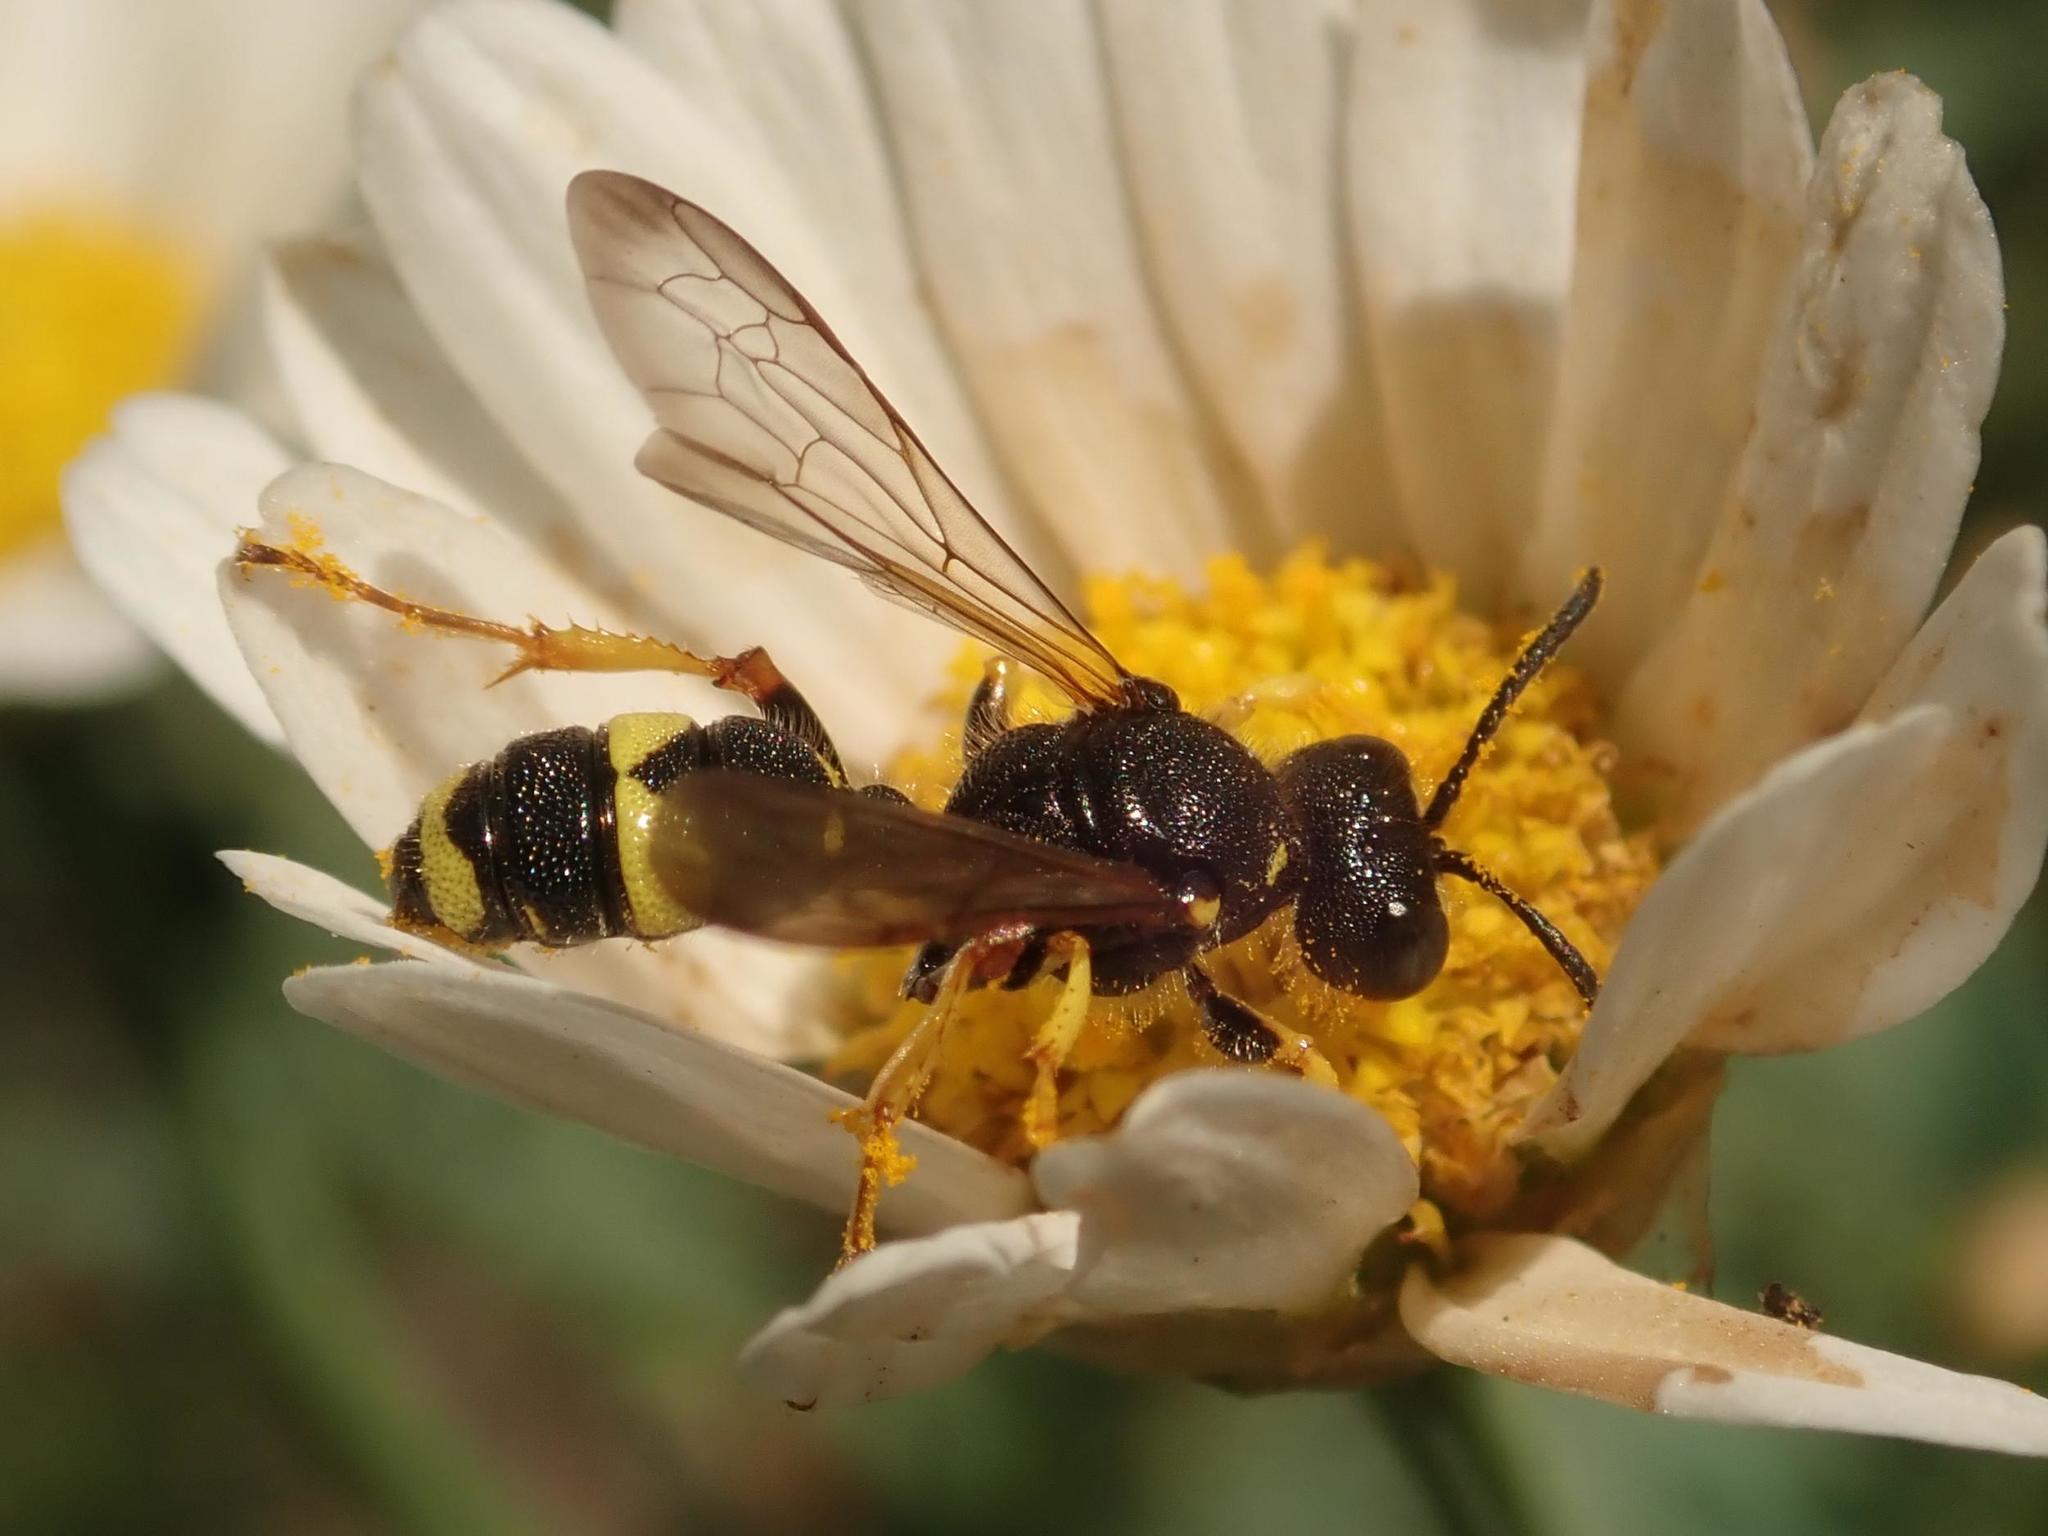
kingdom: Animalia
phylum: Arthropoda
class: Insecta
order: Hymenoptera
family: Crabronidae
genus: Cerceris
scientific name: Cerceris rybyensis
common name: Ornate tailed digger wasp
